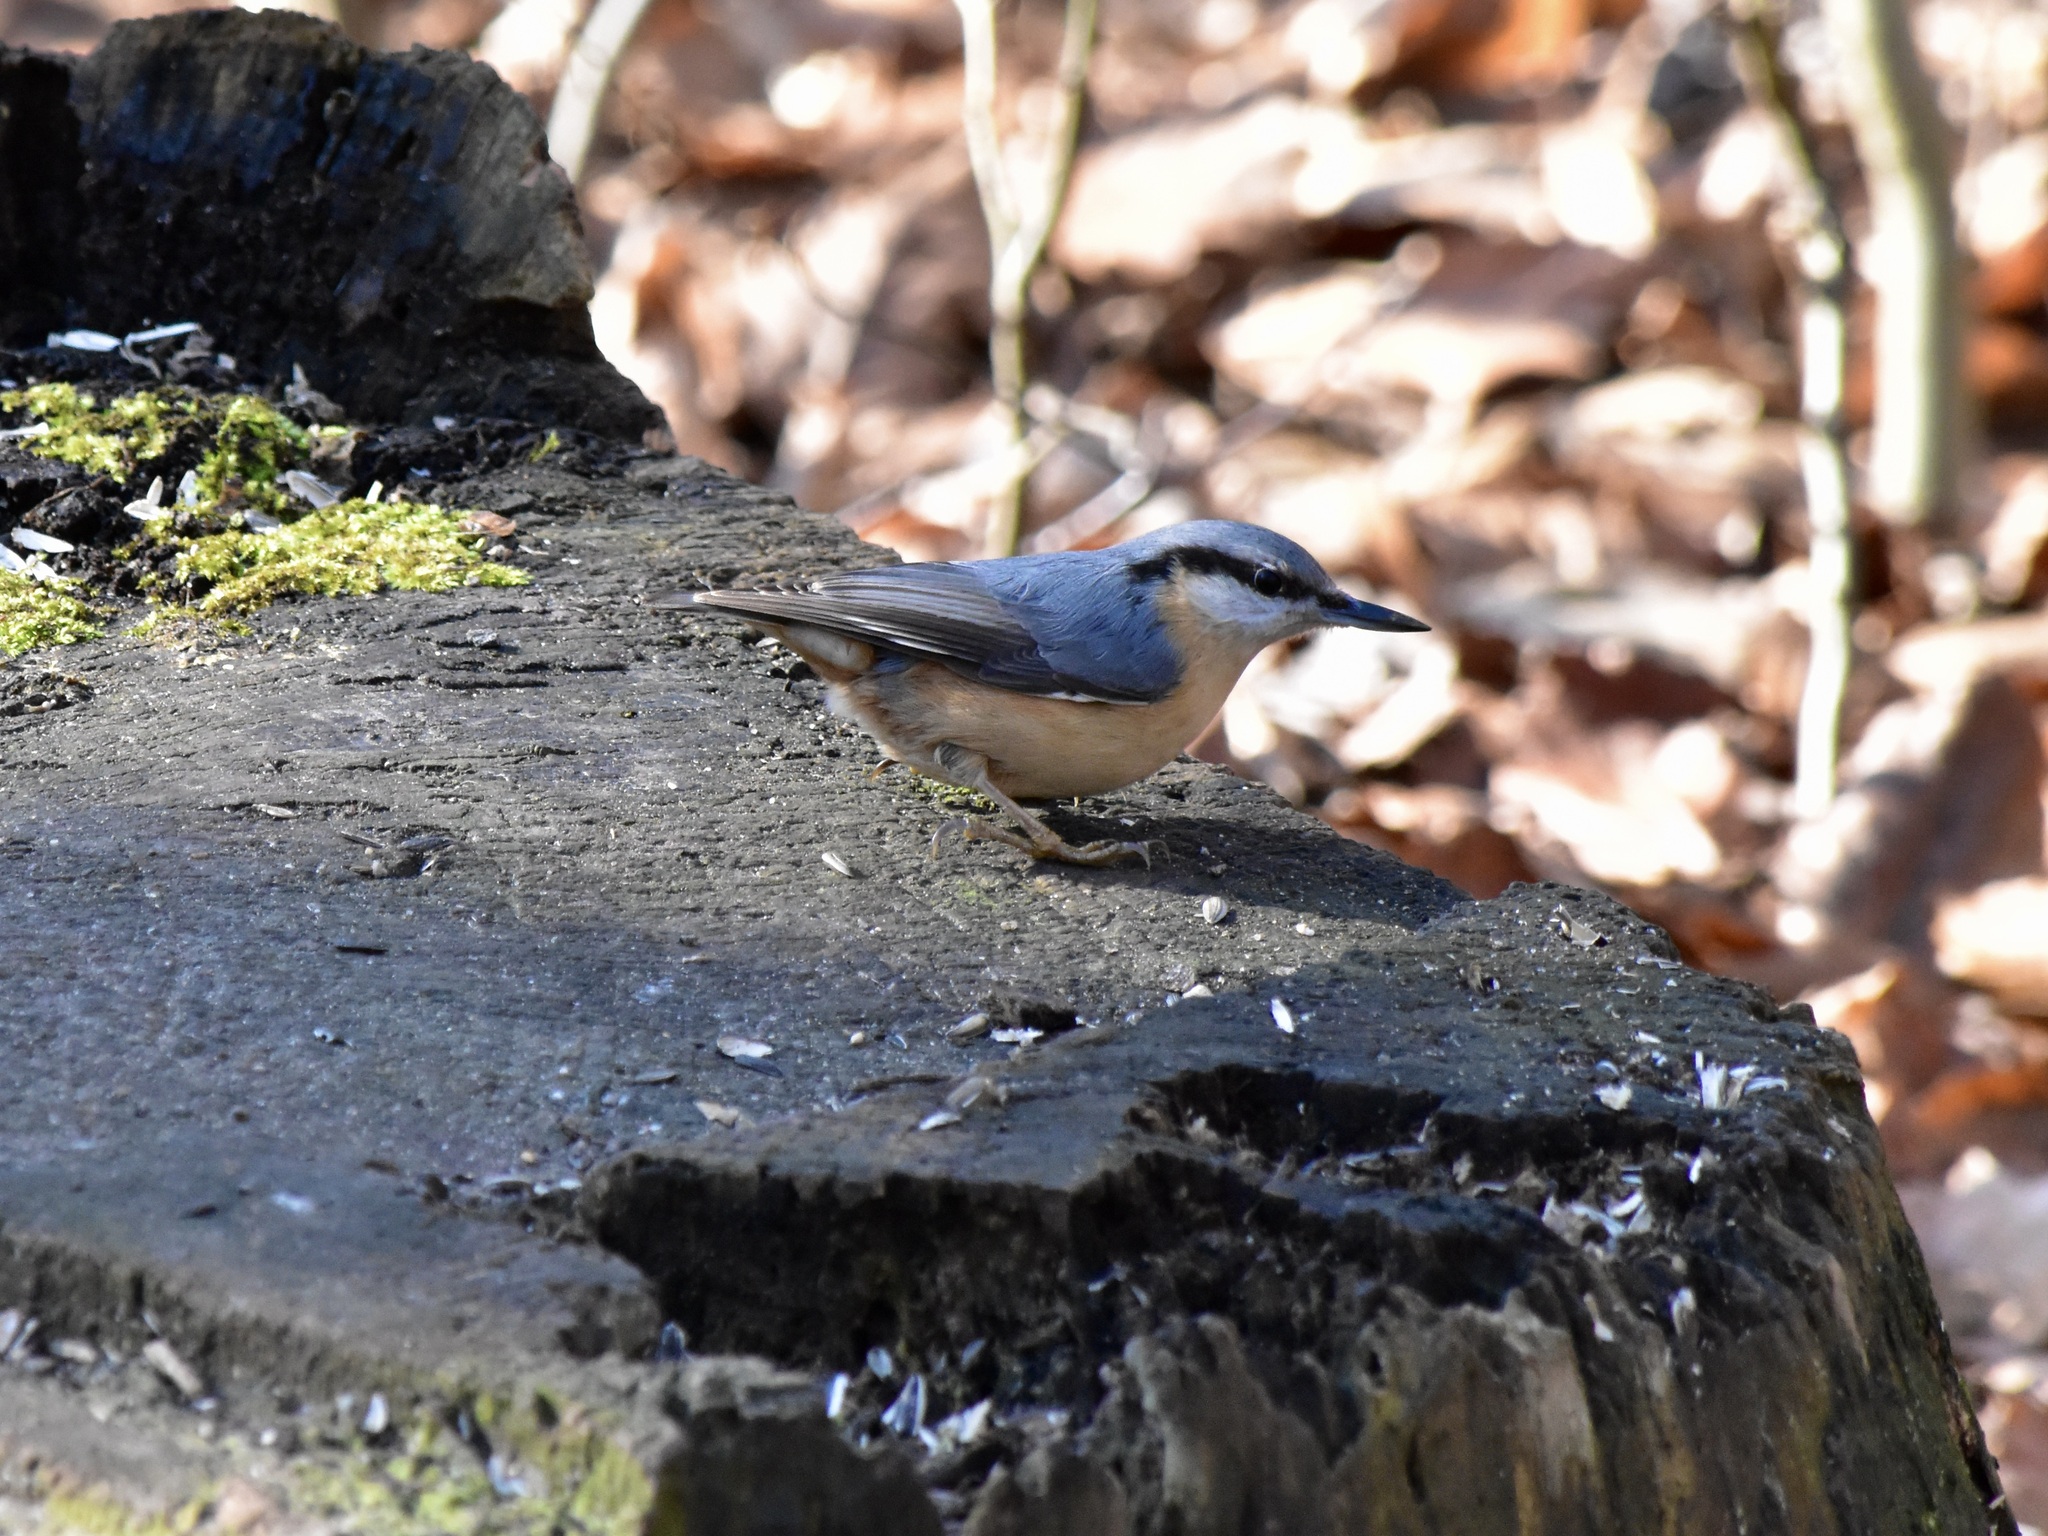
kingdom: Animalia
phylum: Chordata
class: Aves
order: Passeriformes
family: Sittidae
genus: Sitta
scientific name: Sitta europaea
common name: Eurasian nuthatch
